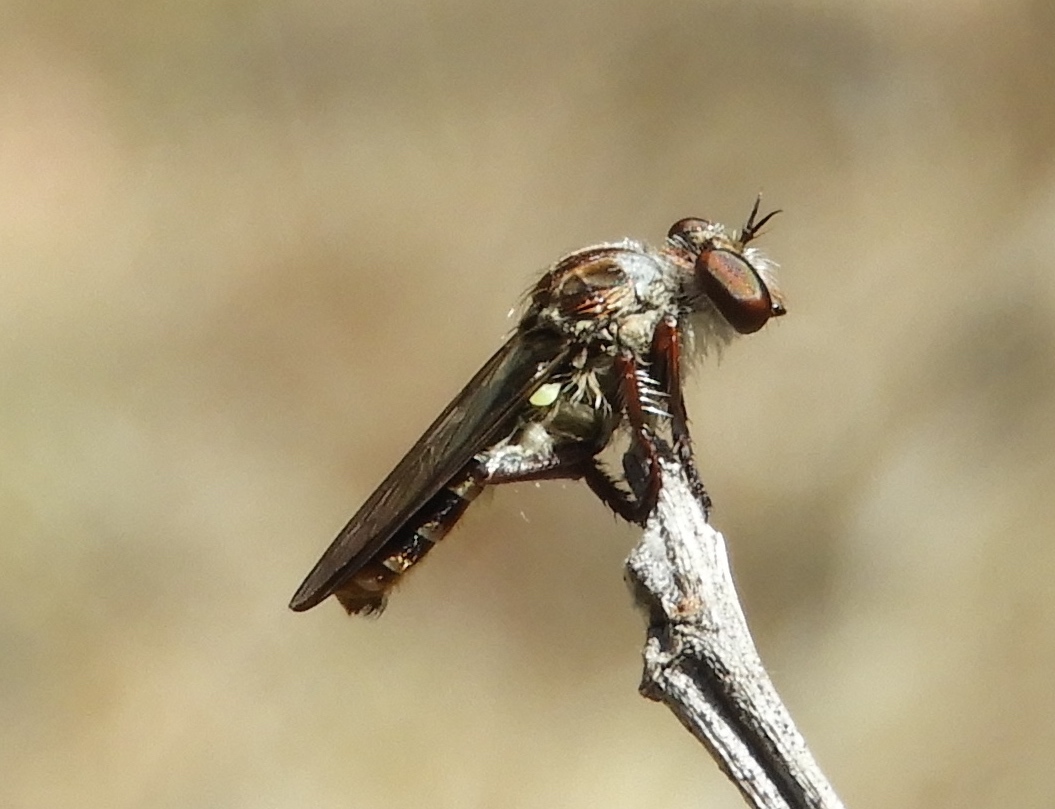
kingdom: Animalia
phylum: Arthropoda
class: Insecta
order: Diptera
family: Asilidae
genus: Heteropogon
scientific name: Heteropogon
